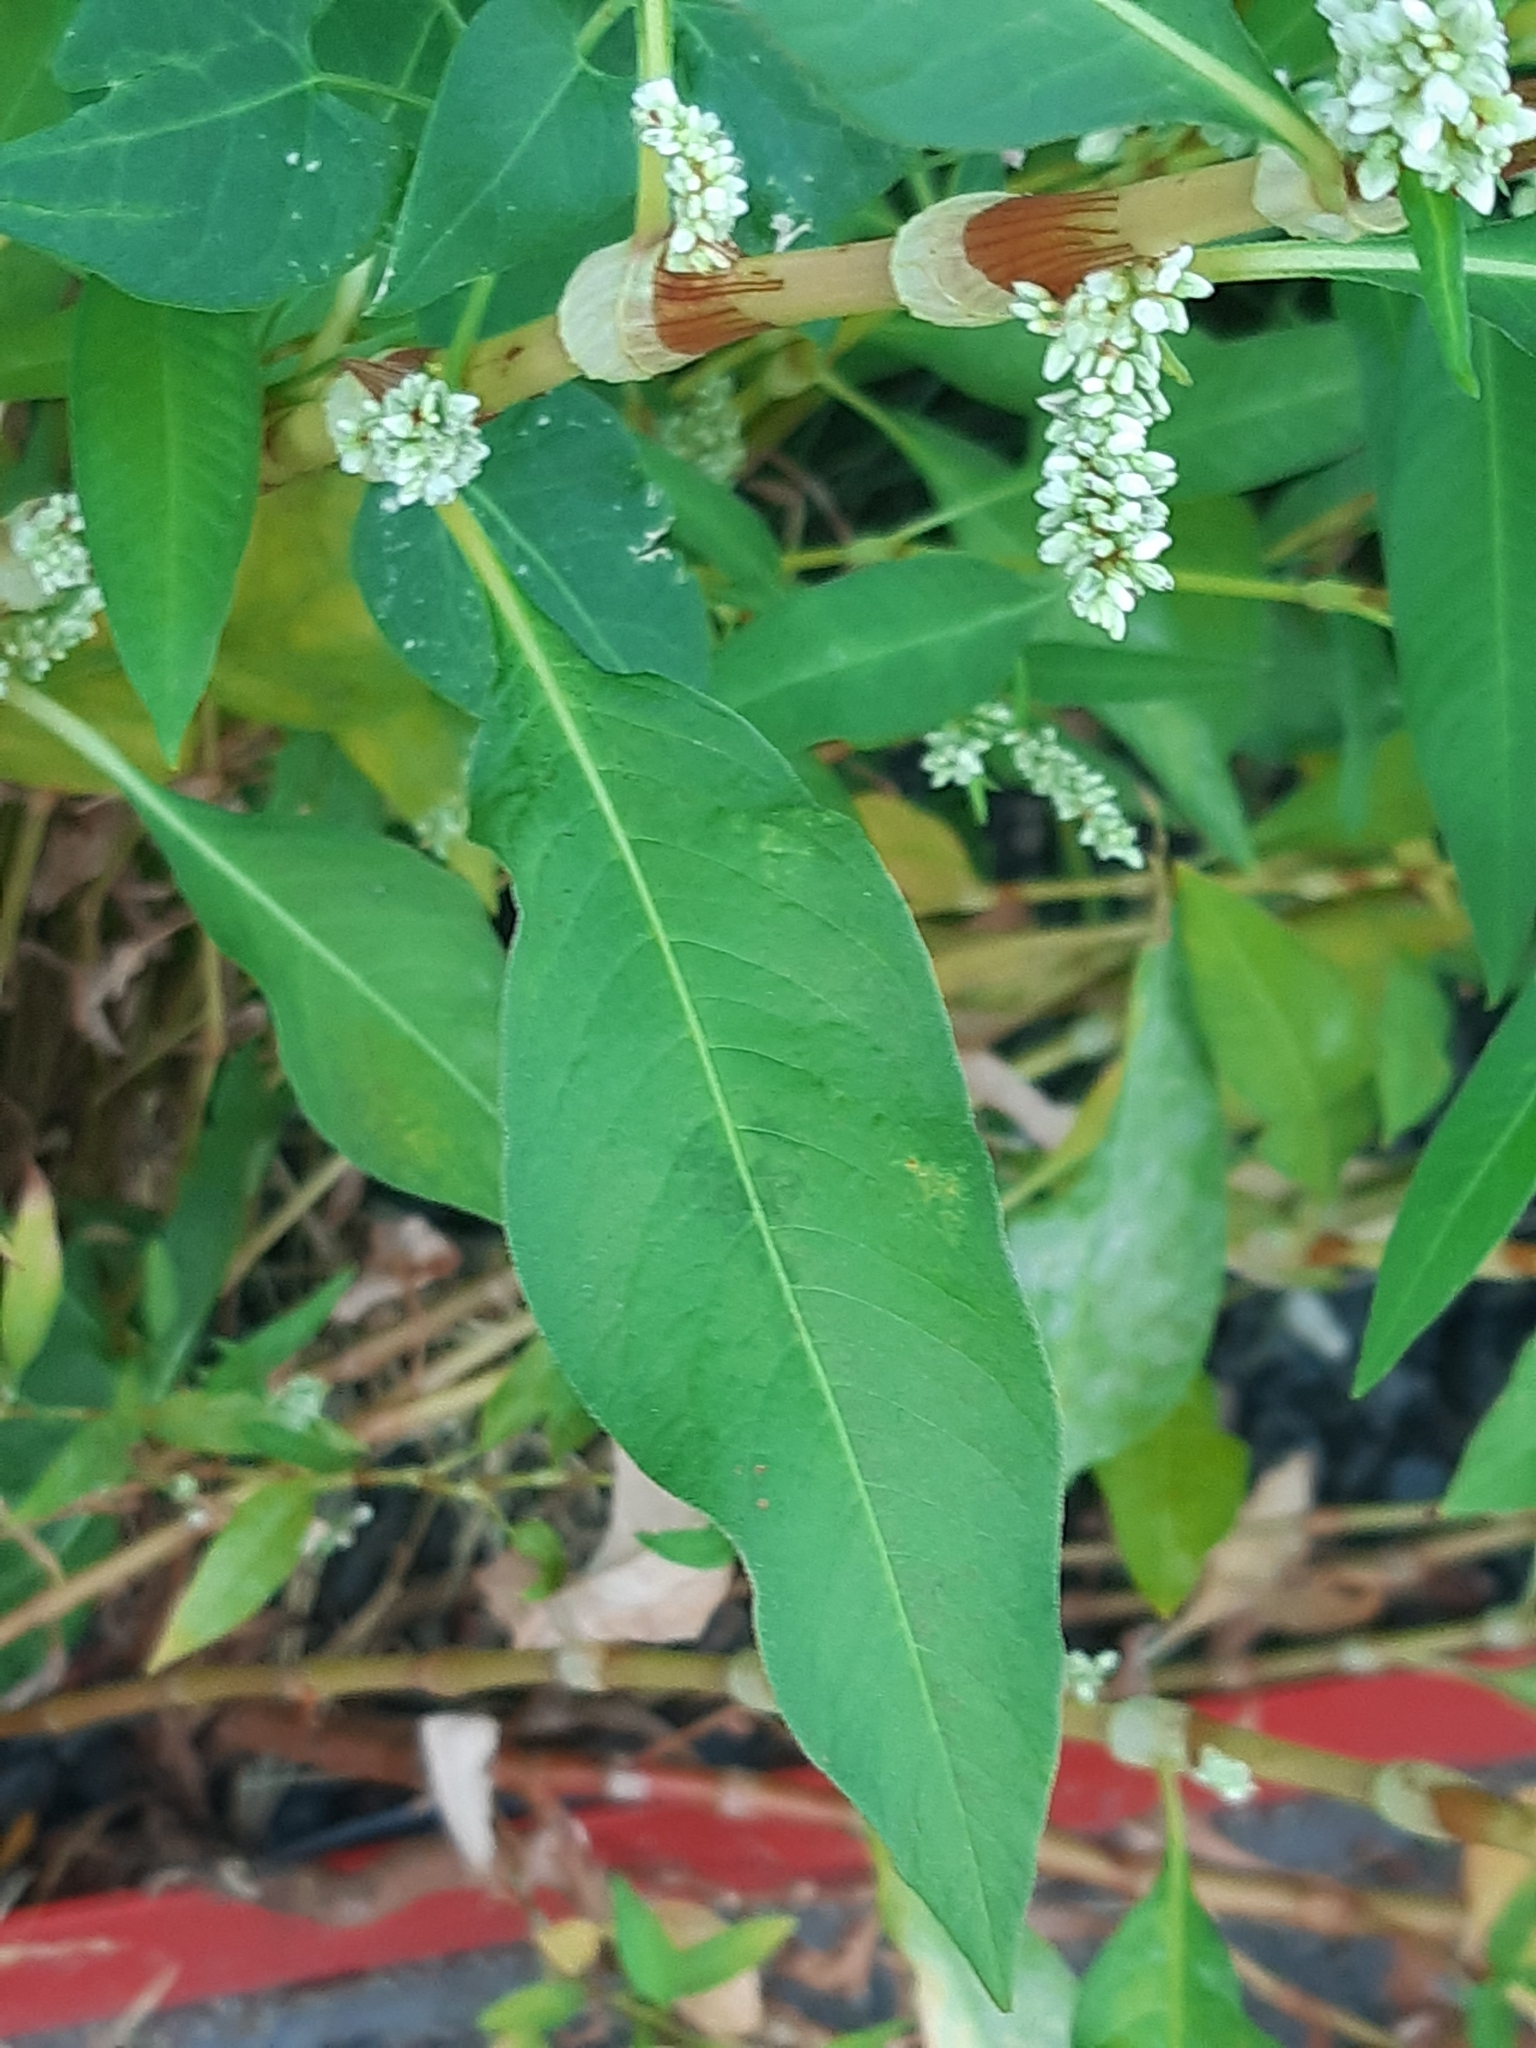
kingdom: Plantae
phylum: Tracheophyta
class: Magnoliopsida
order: Caryophyllales
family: Polygonaceae
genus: Persicaria
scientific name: Persicaria lapathifolia
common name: Curlytop knotweed
